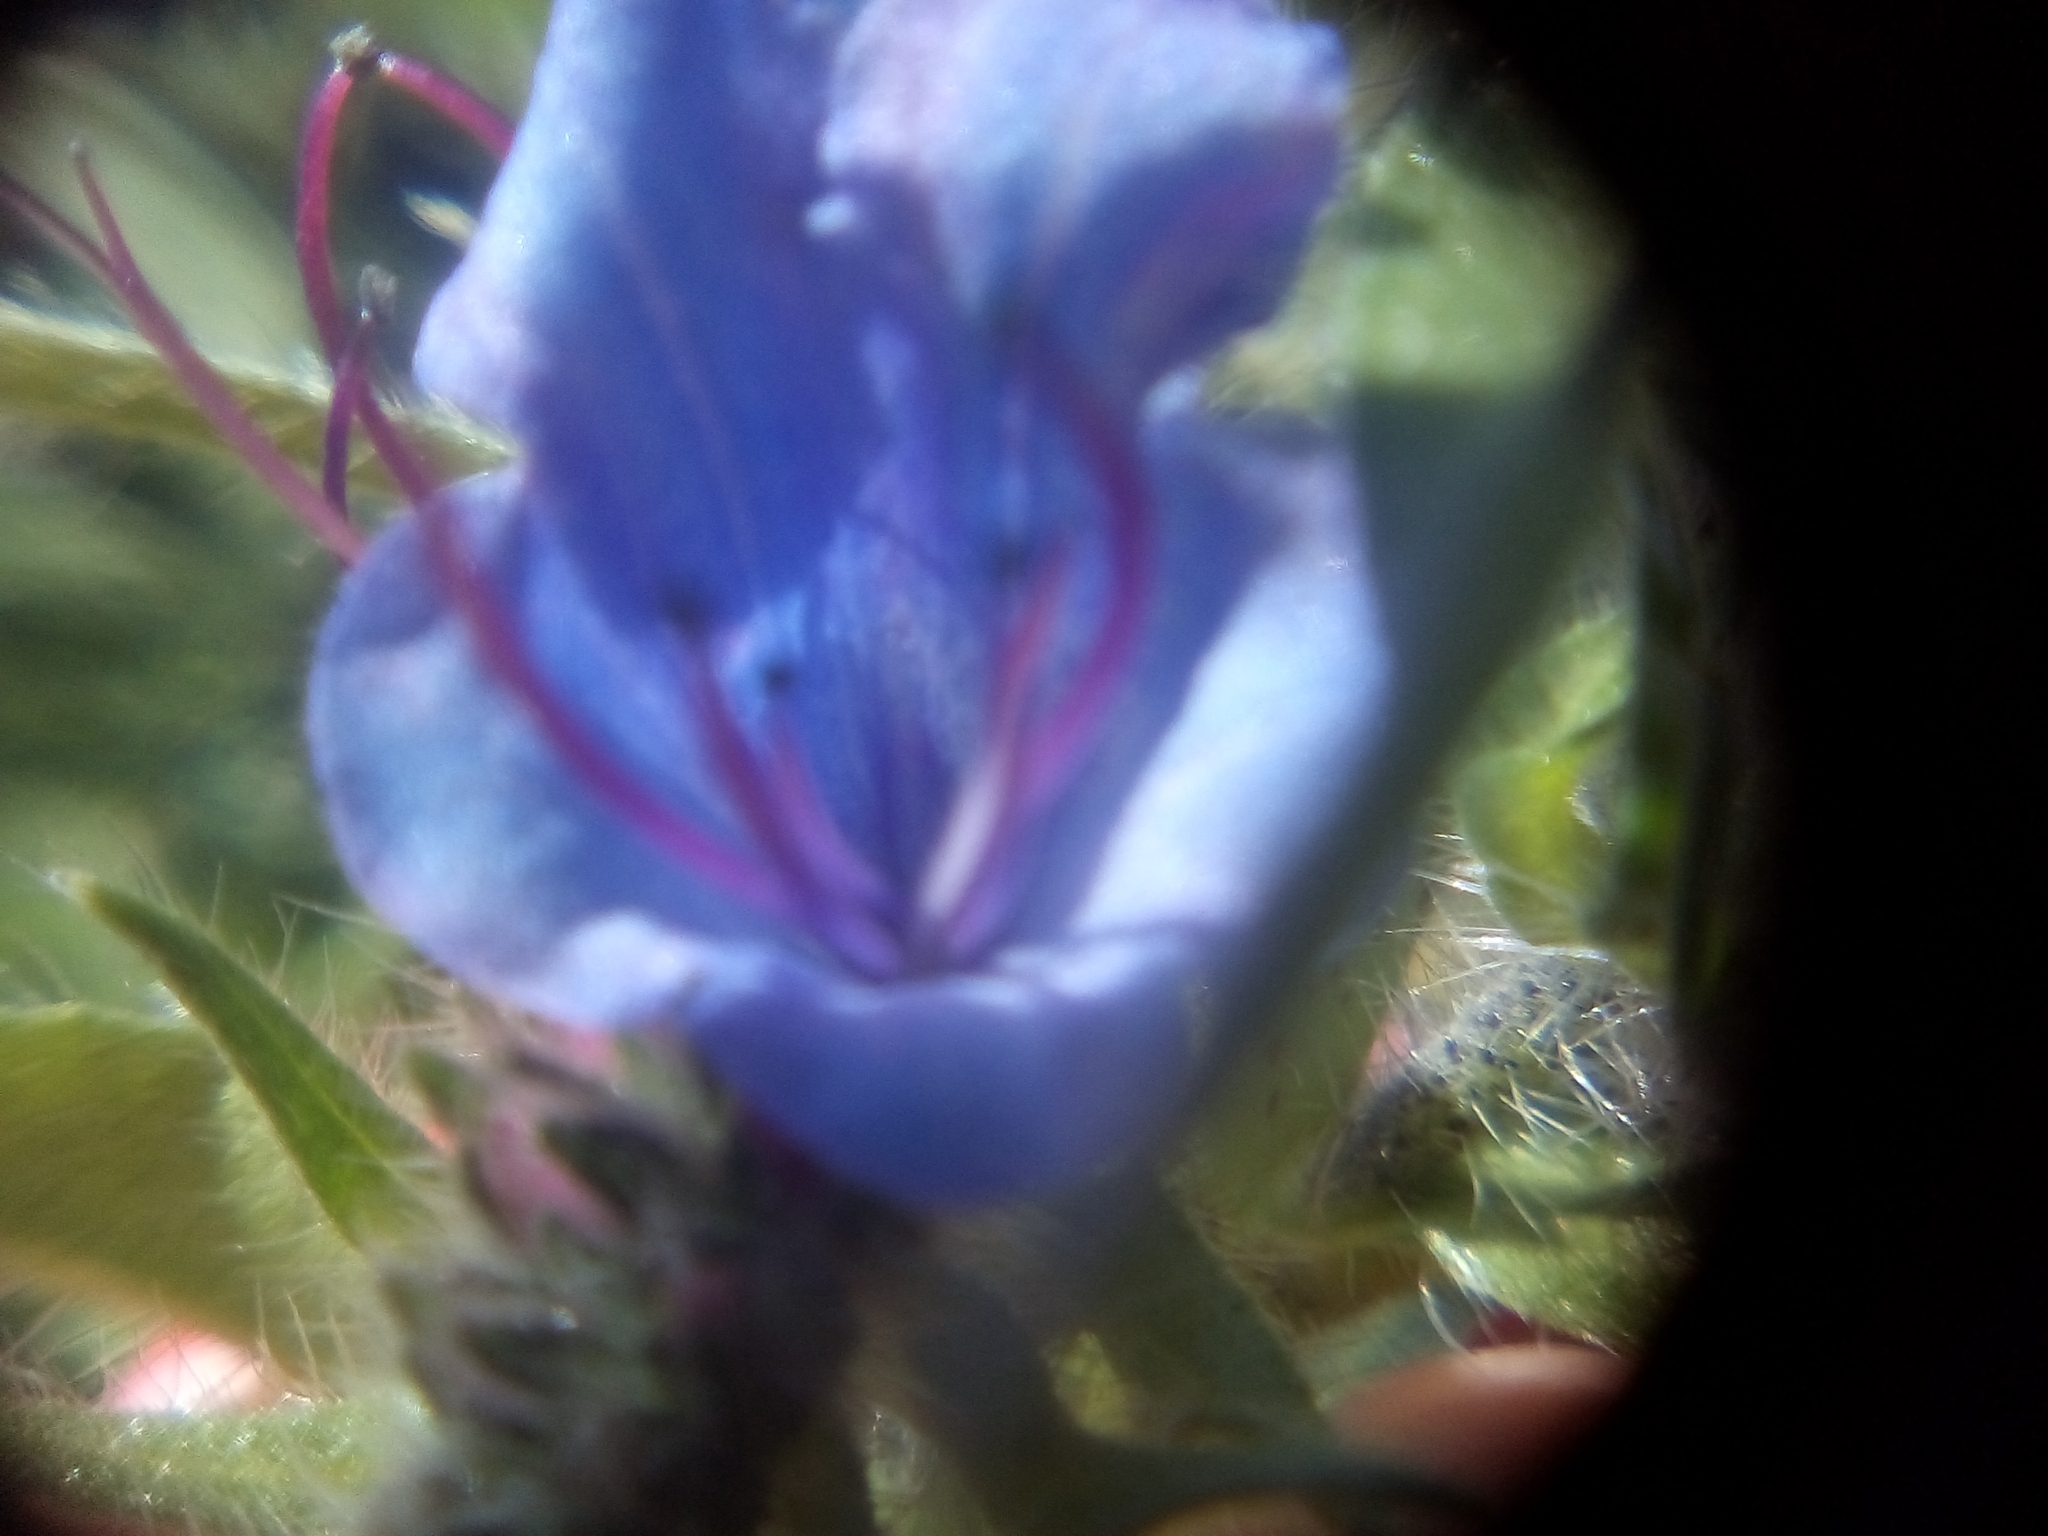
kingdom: Plantae
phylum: Tracheophyta
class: Magnoliopsida
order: Boraginales
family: Boraginaceae
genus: Echium
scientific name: Echium vulgare
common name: Common viper's bugloss
